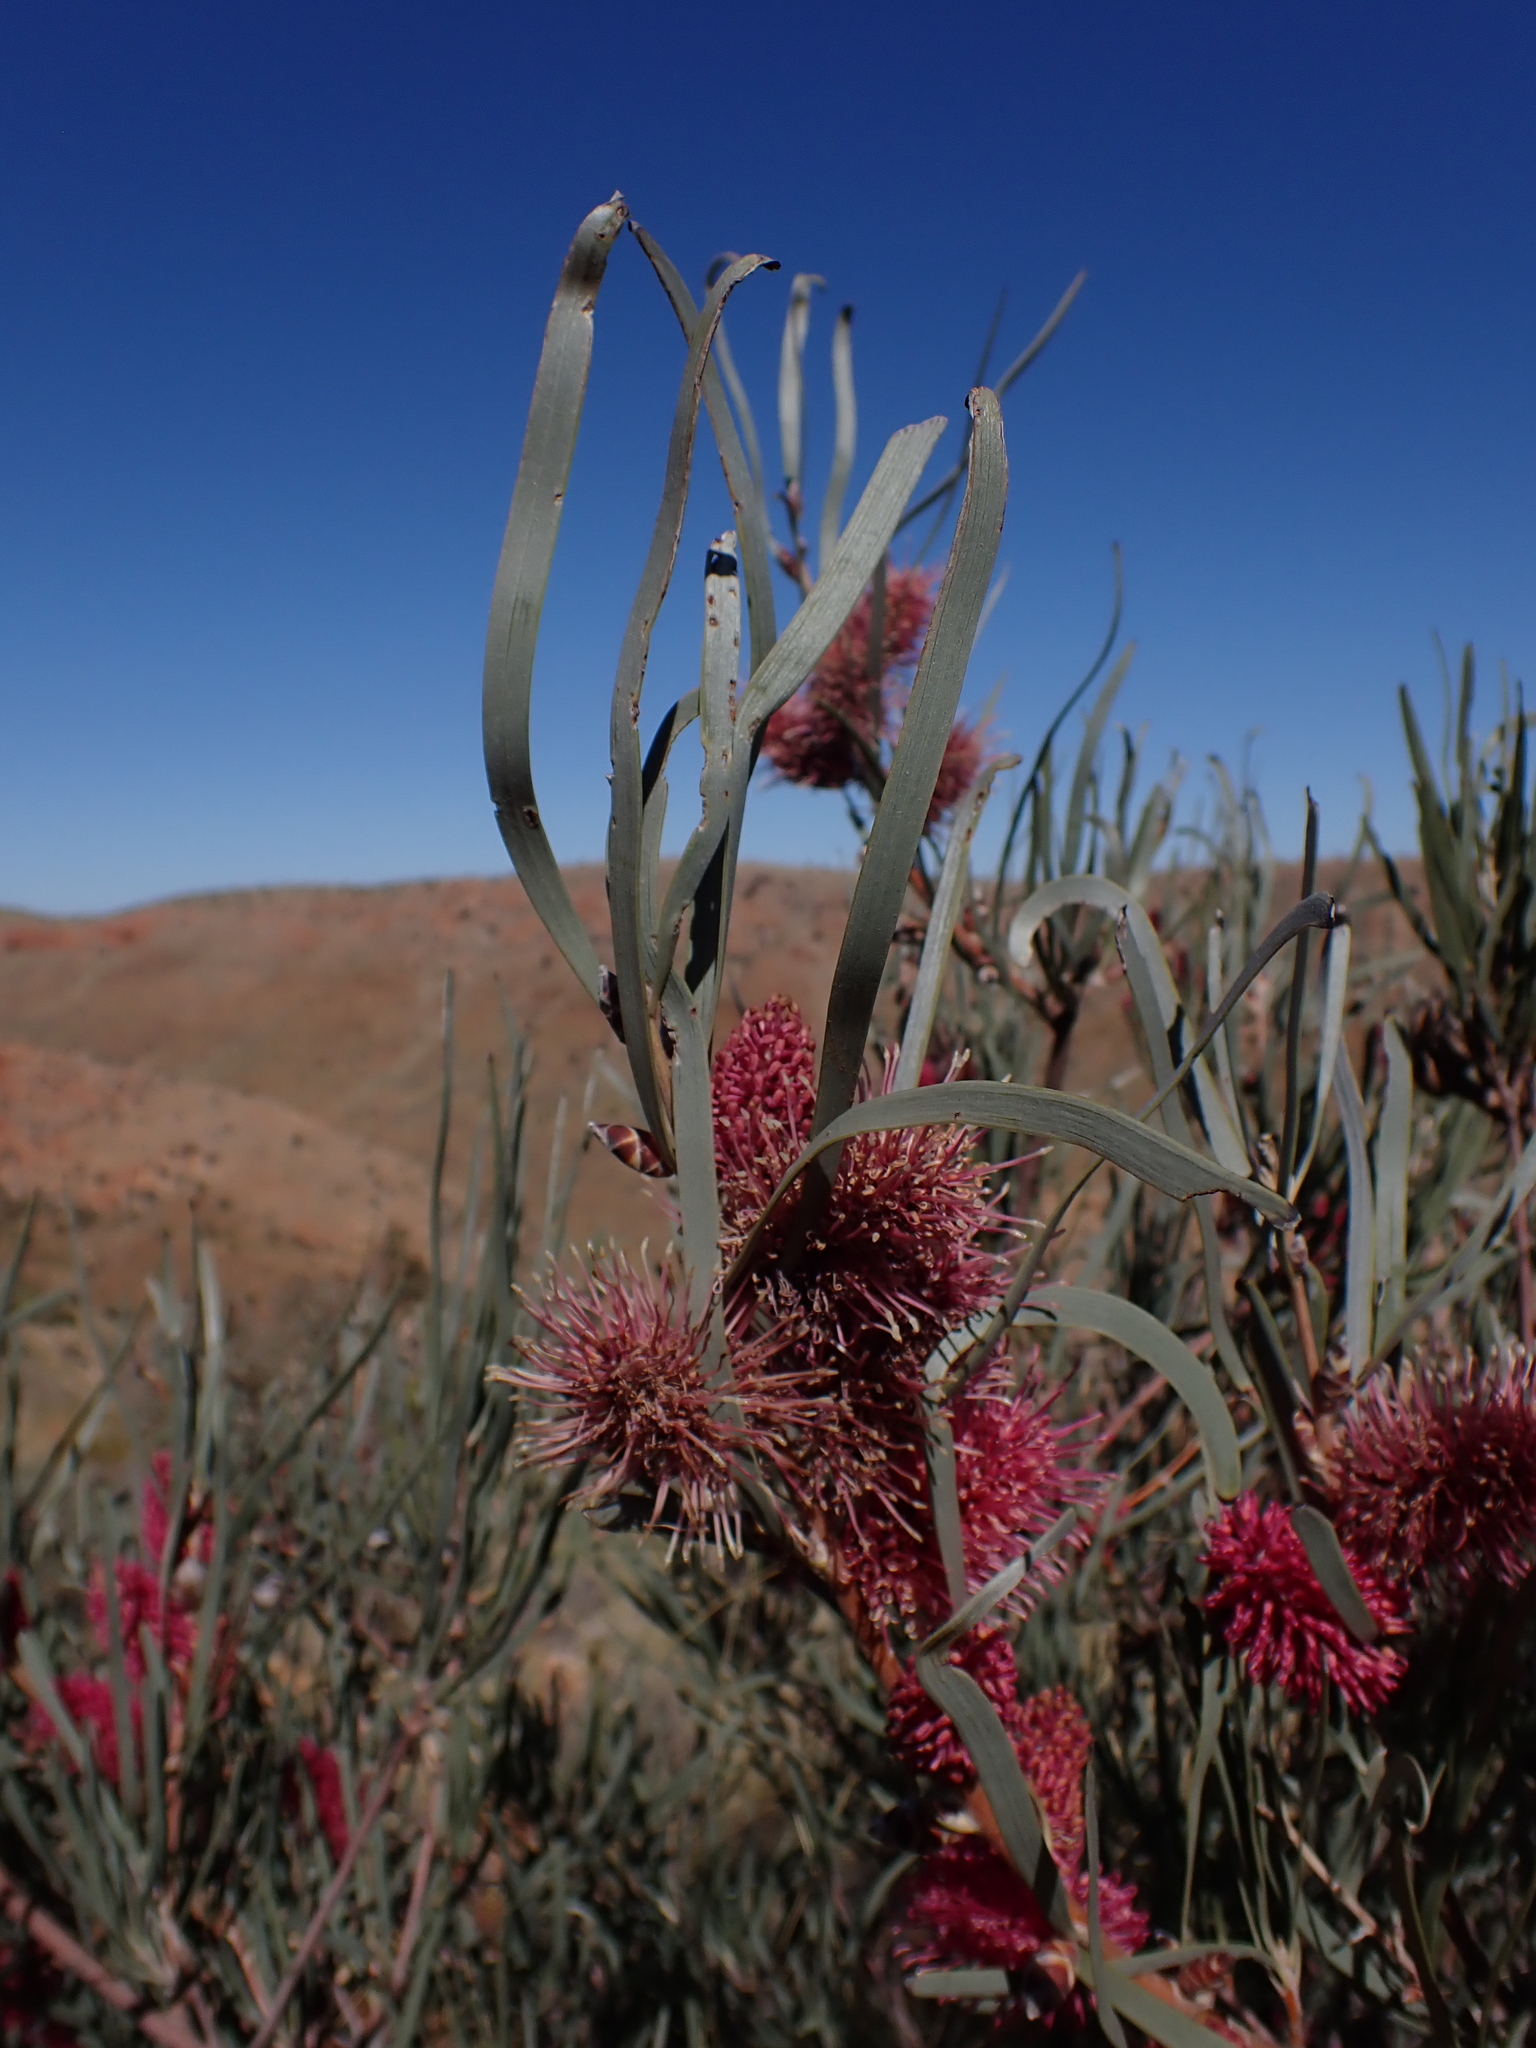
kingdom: Plantae
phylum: Tracheophyta
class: Magnoliopsida
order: Proteales
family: Proteaceae
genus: Hakea
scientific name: Hakea grammatophylla
